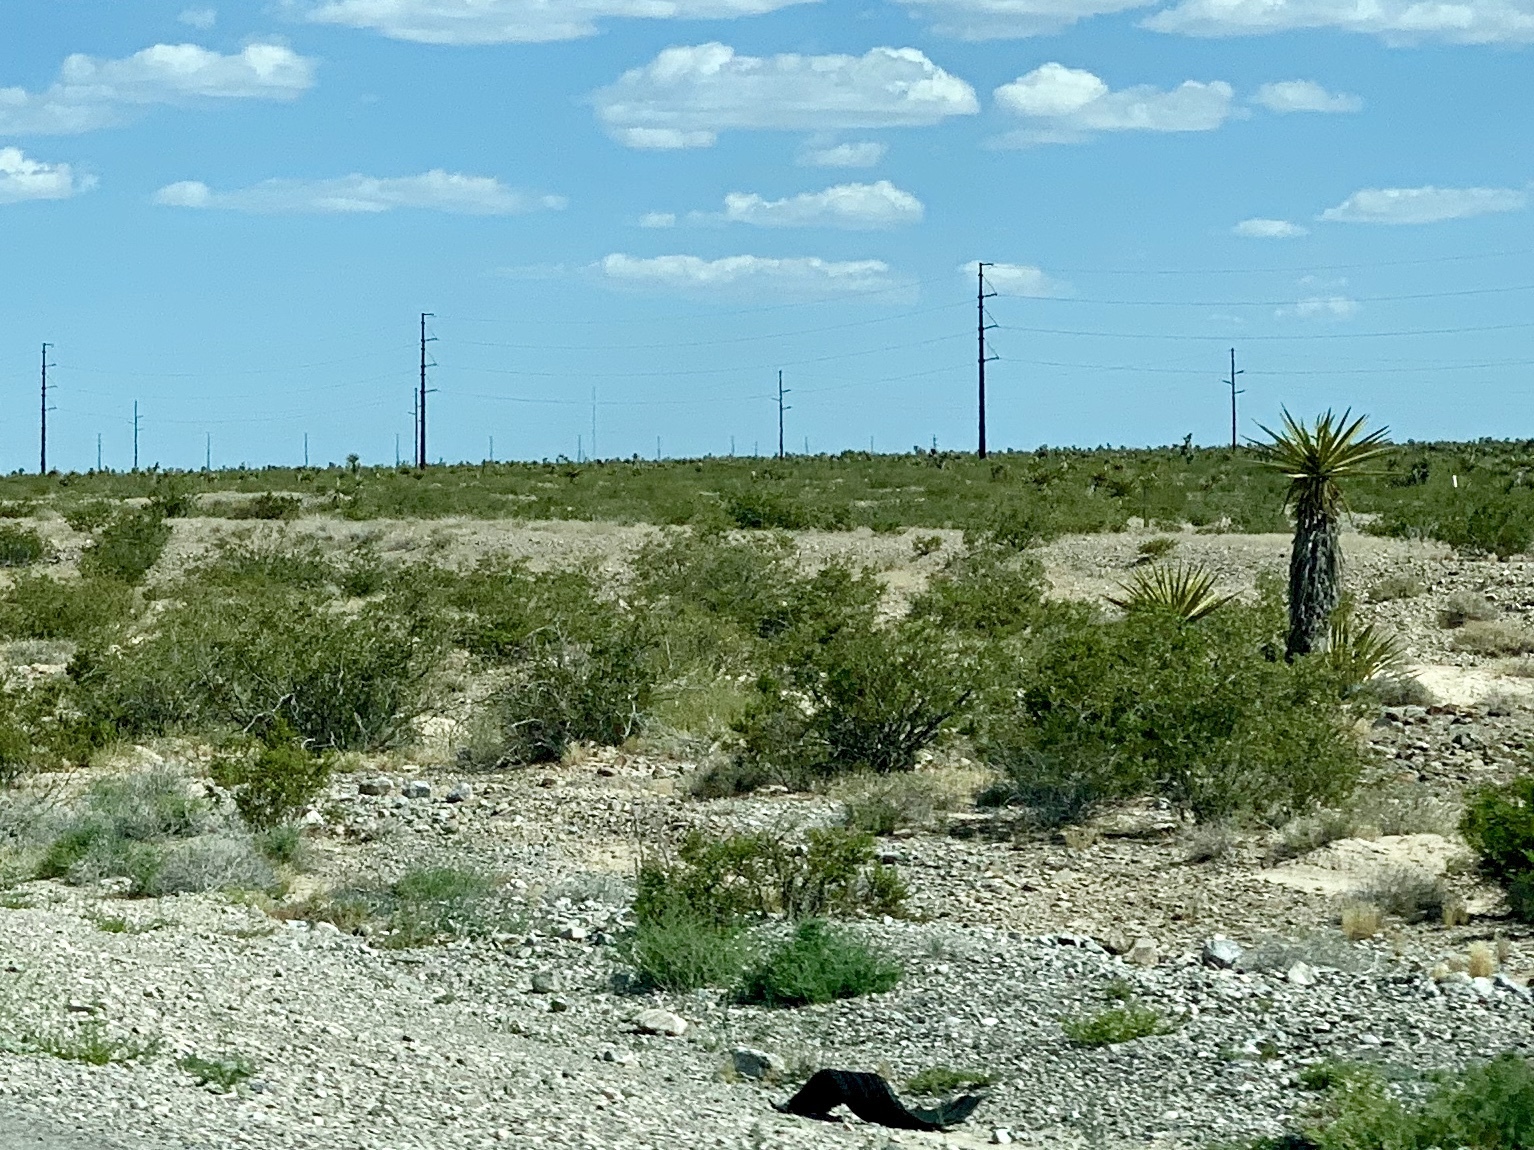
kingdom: Plantae
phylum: Tracheophyta
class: Magnoliopsida
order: Zygophyllales
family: Zygophyllaceae
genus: Larrea
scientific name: Larrea tridentata
